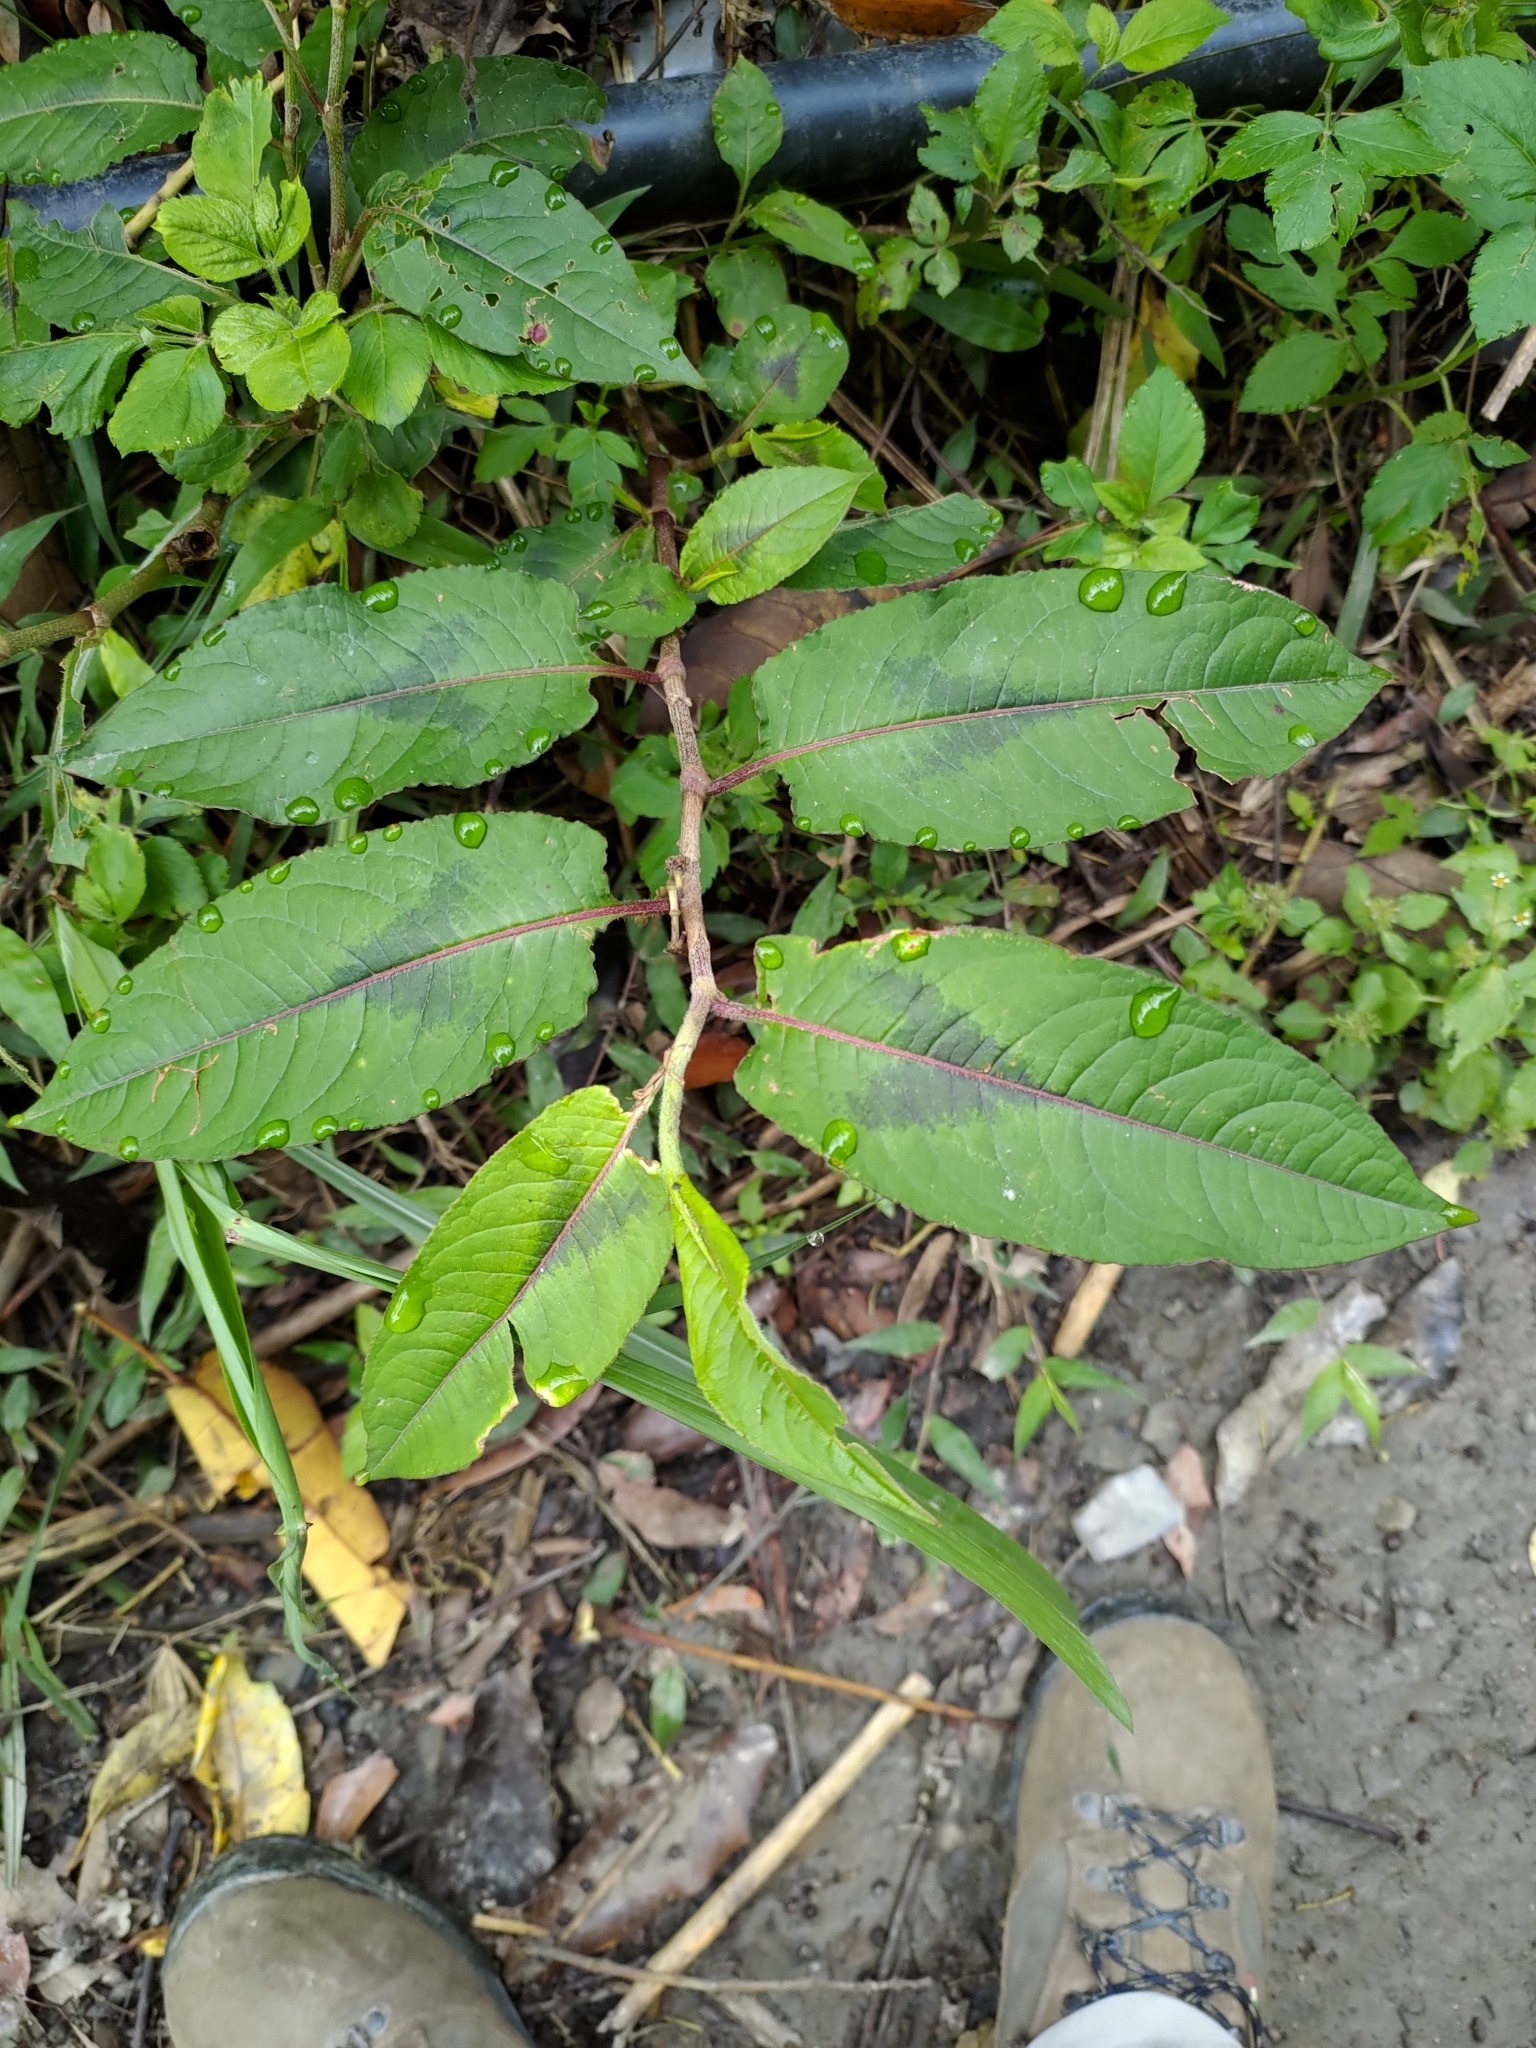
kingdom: Plantae
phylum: Tracheophyta
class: Magnoliopsida
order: Caryophyllales
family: Polygonaceae
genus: Persicaria
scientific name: Persicaria chinensis
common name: Chinese knotweed
